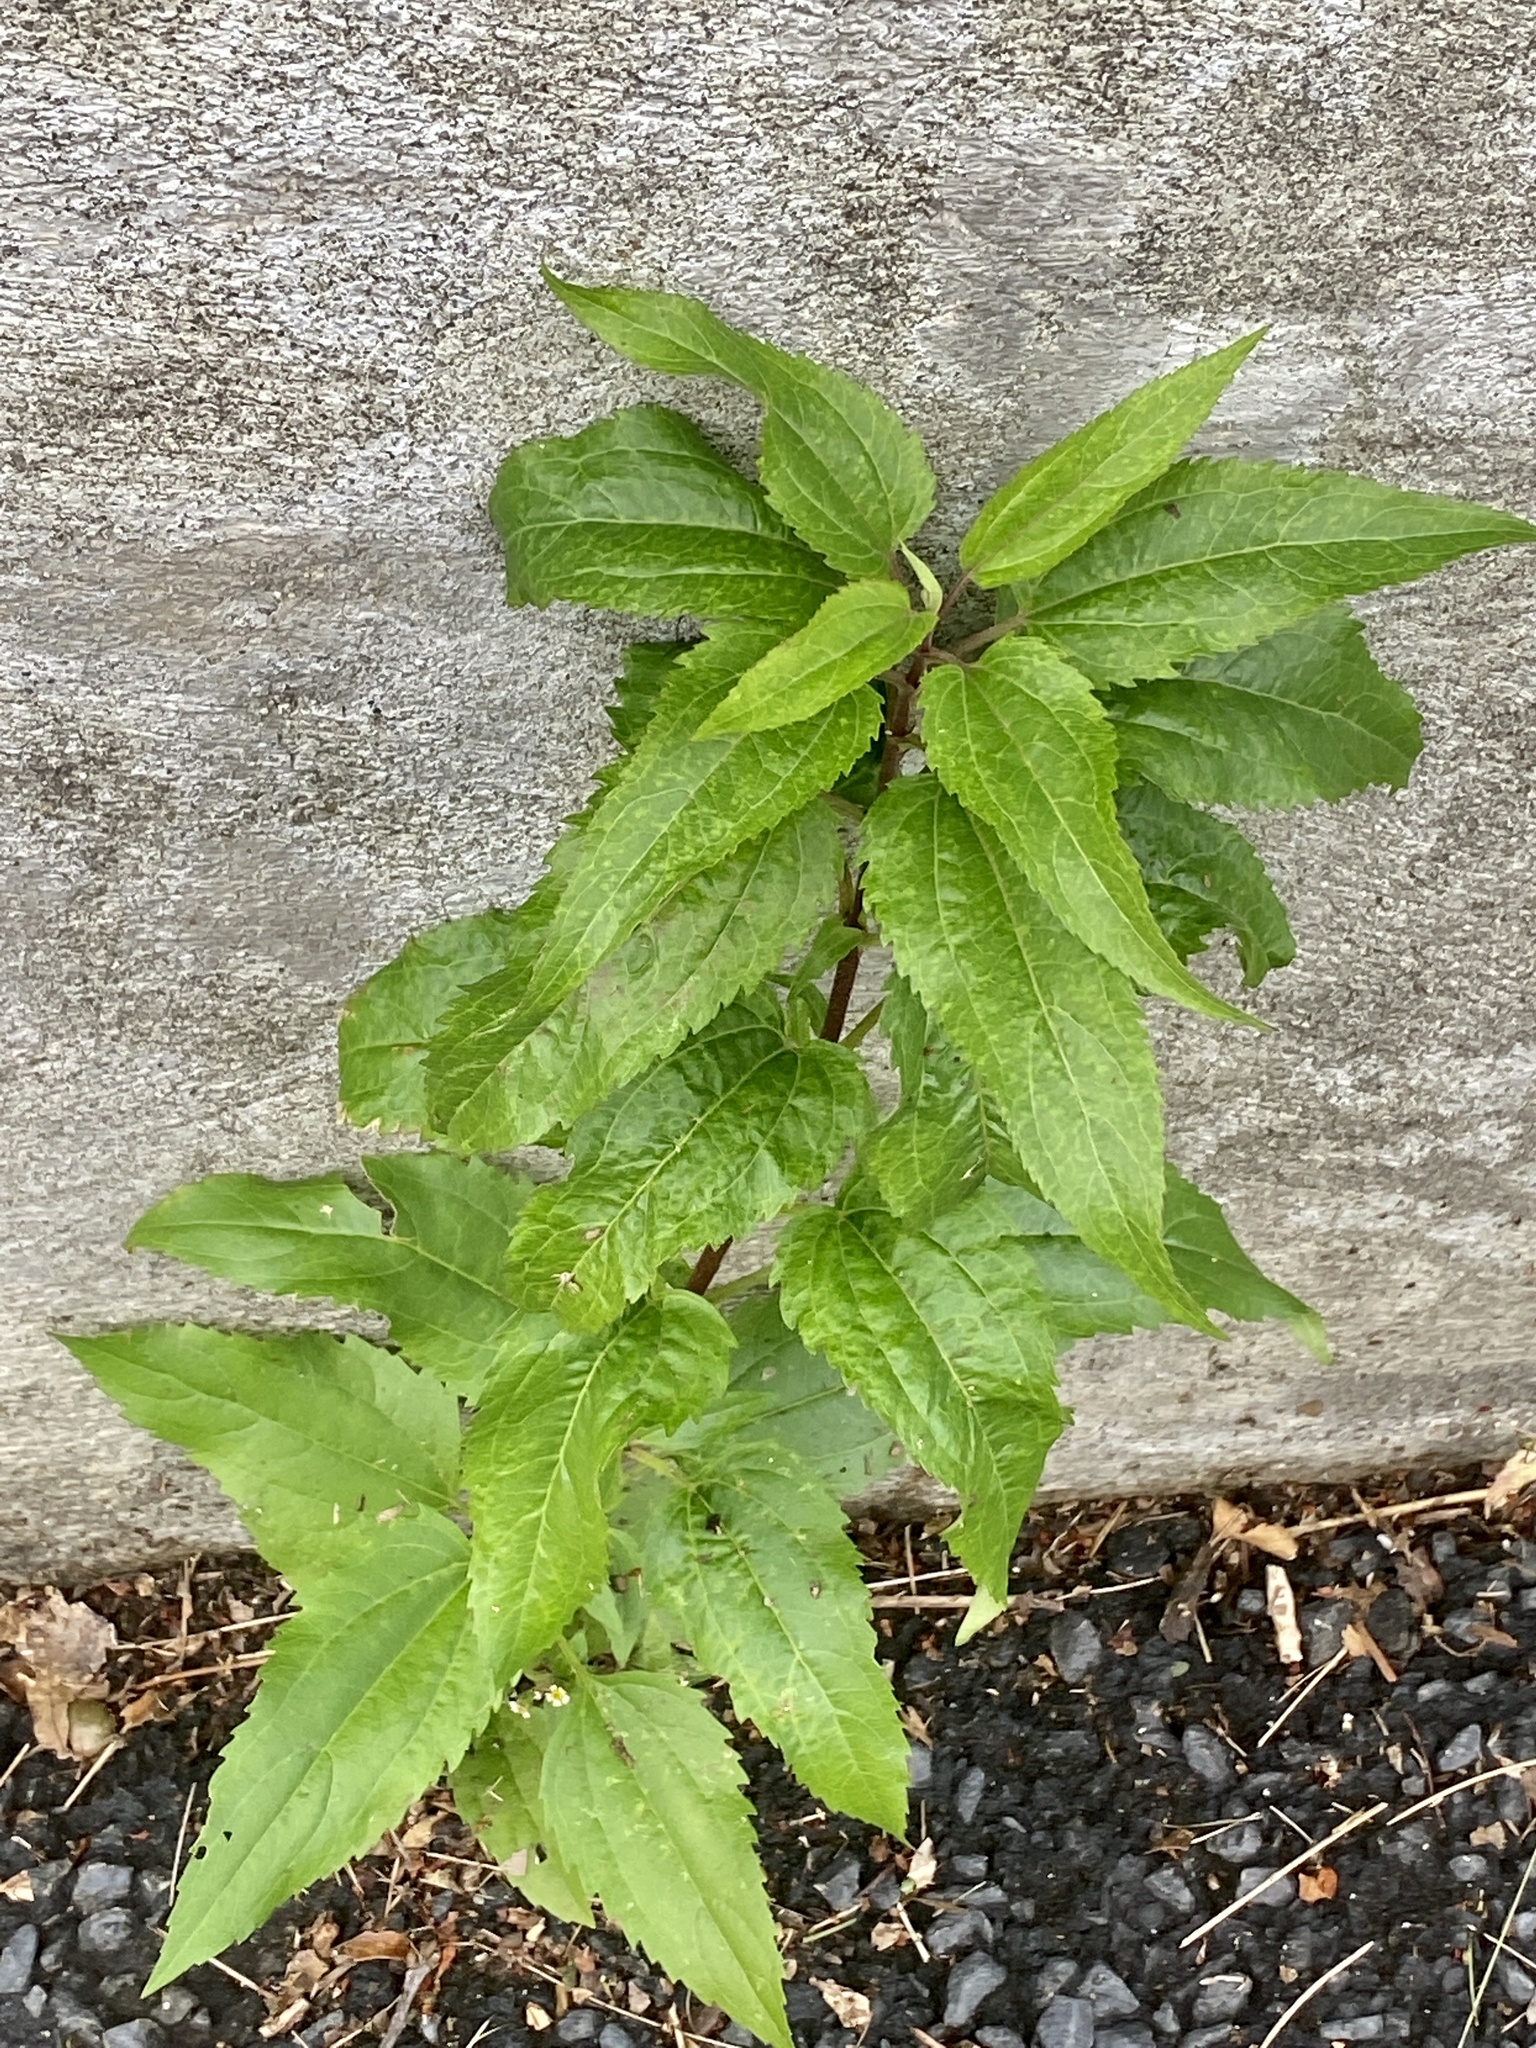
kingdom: Plantae
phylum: Tracheophyta
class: Magnoliopsida
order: Asterales
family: Asteraceae
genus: Eupatorium
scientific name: Eupatorium serotinum
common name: Late boneset
